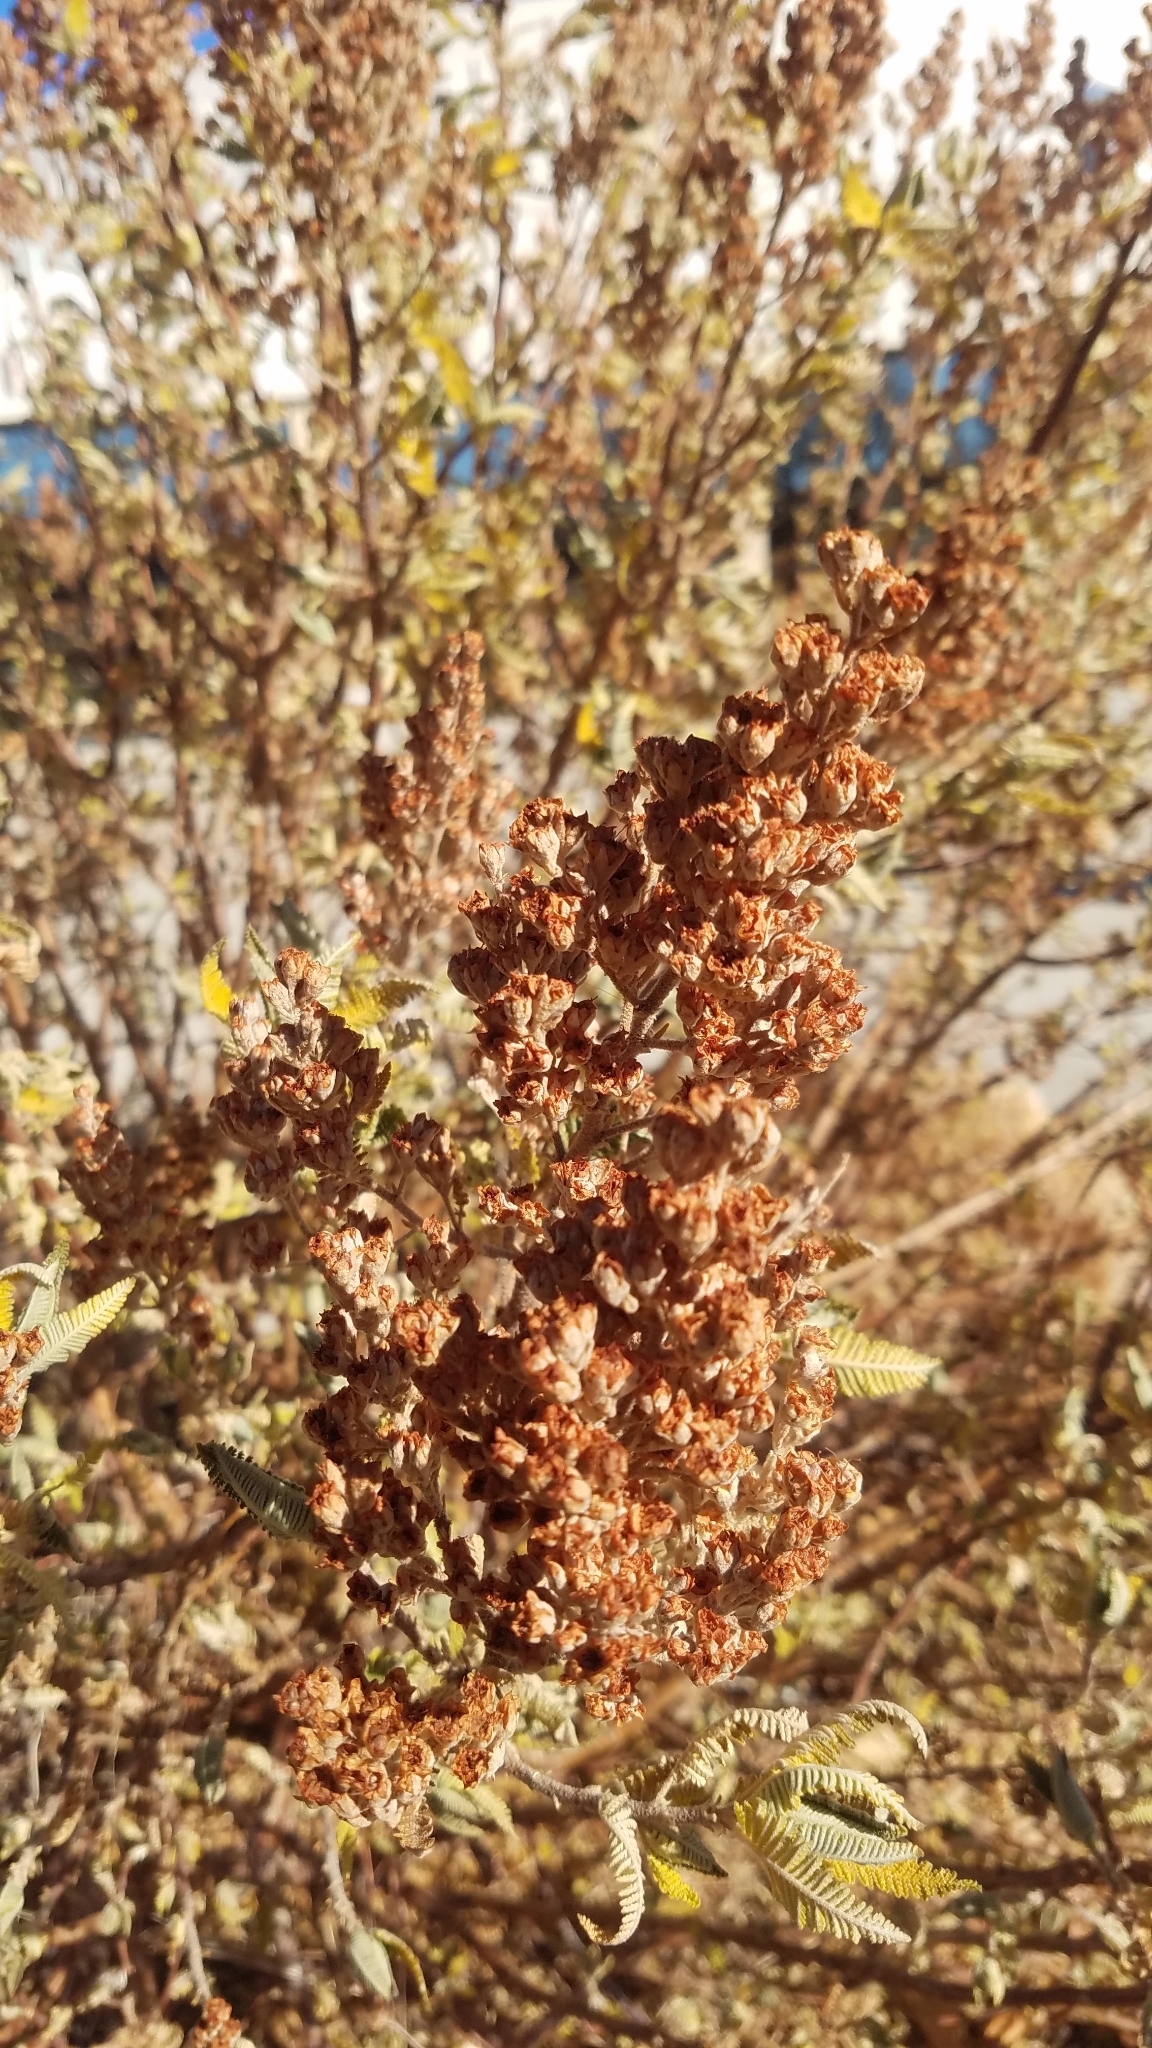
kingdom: Plantae
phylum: Tracheophyta
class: Magnoliopsida
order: Rosales
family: Rosaceae
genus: Chamaebatiaria
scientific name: Chamaebatiaria millefolium
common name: Fernbush
